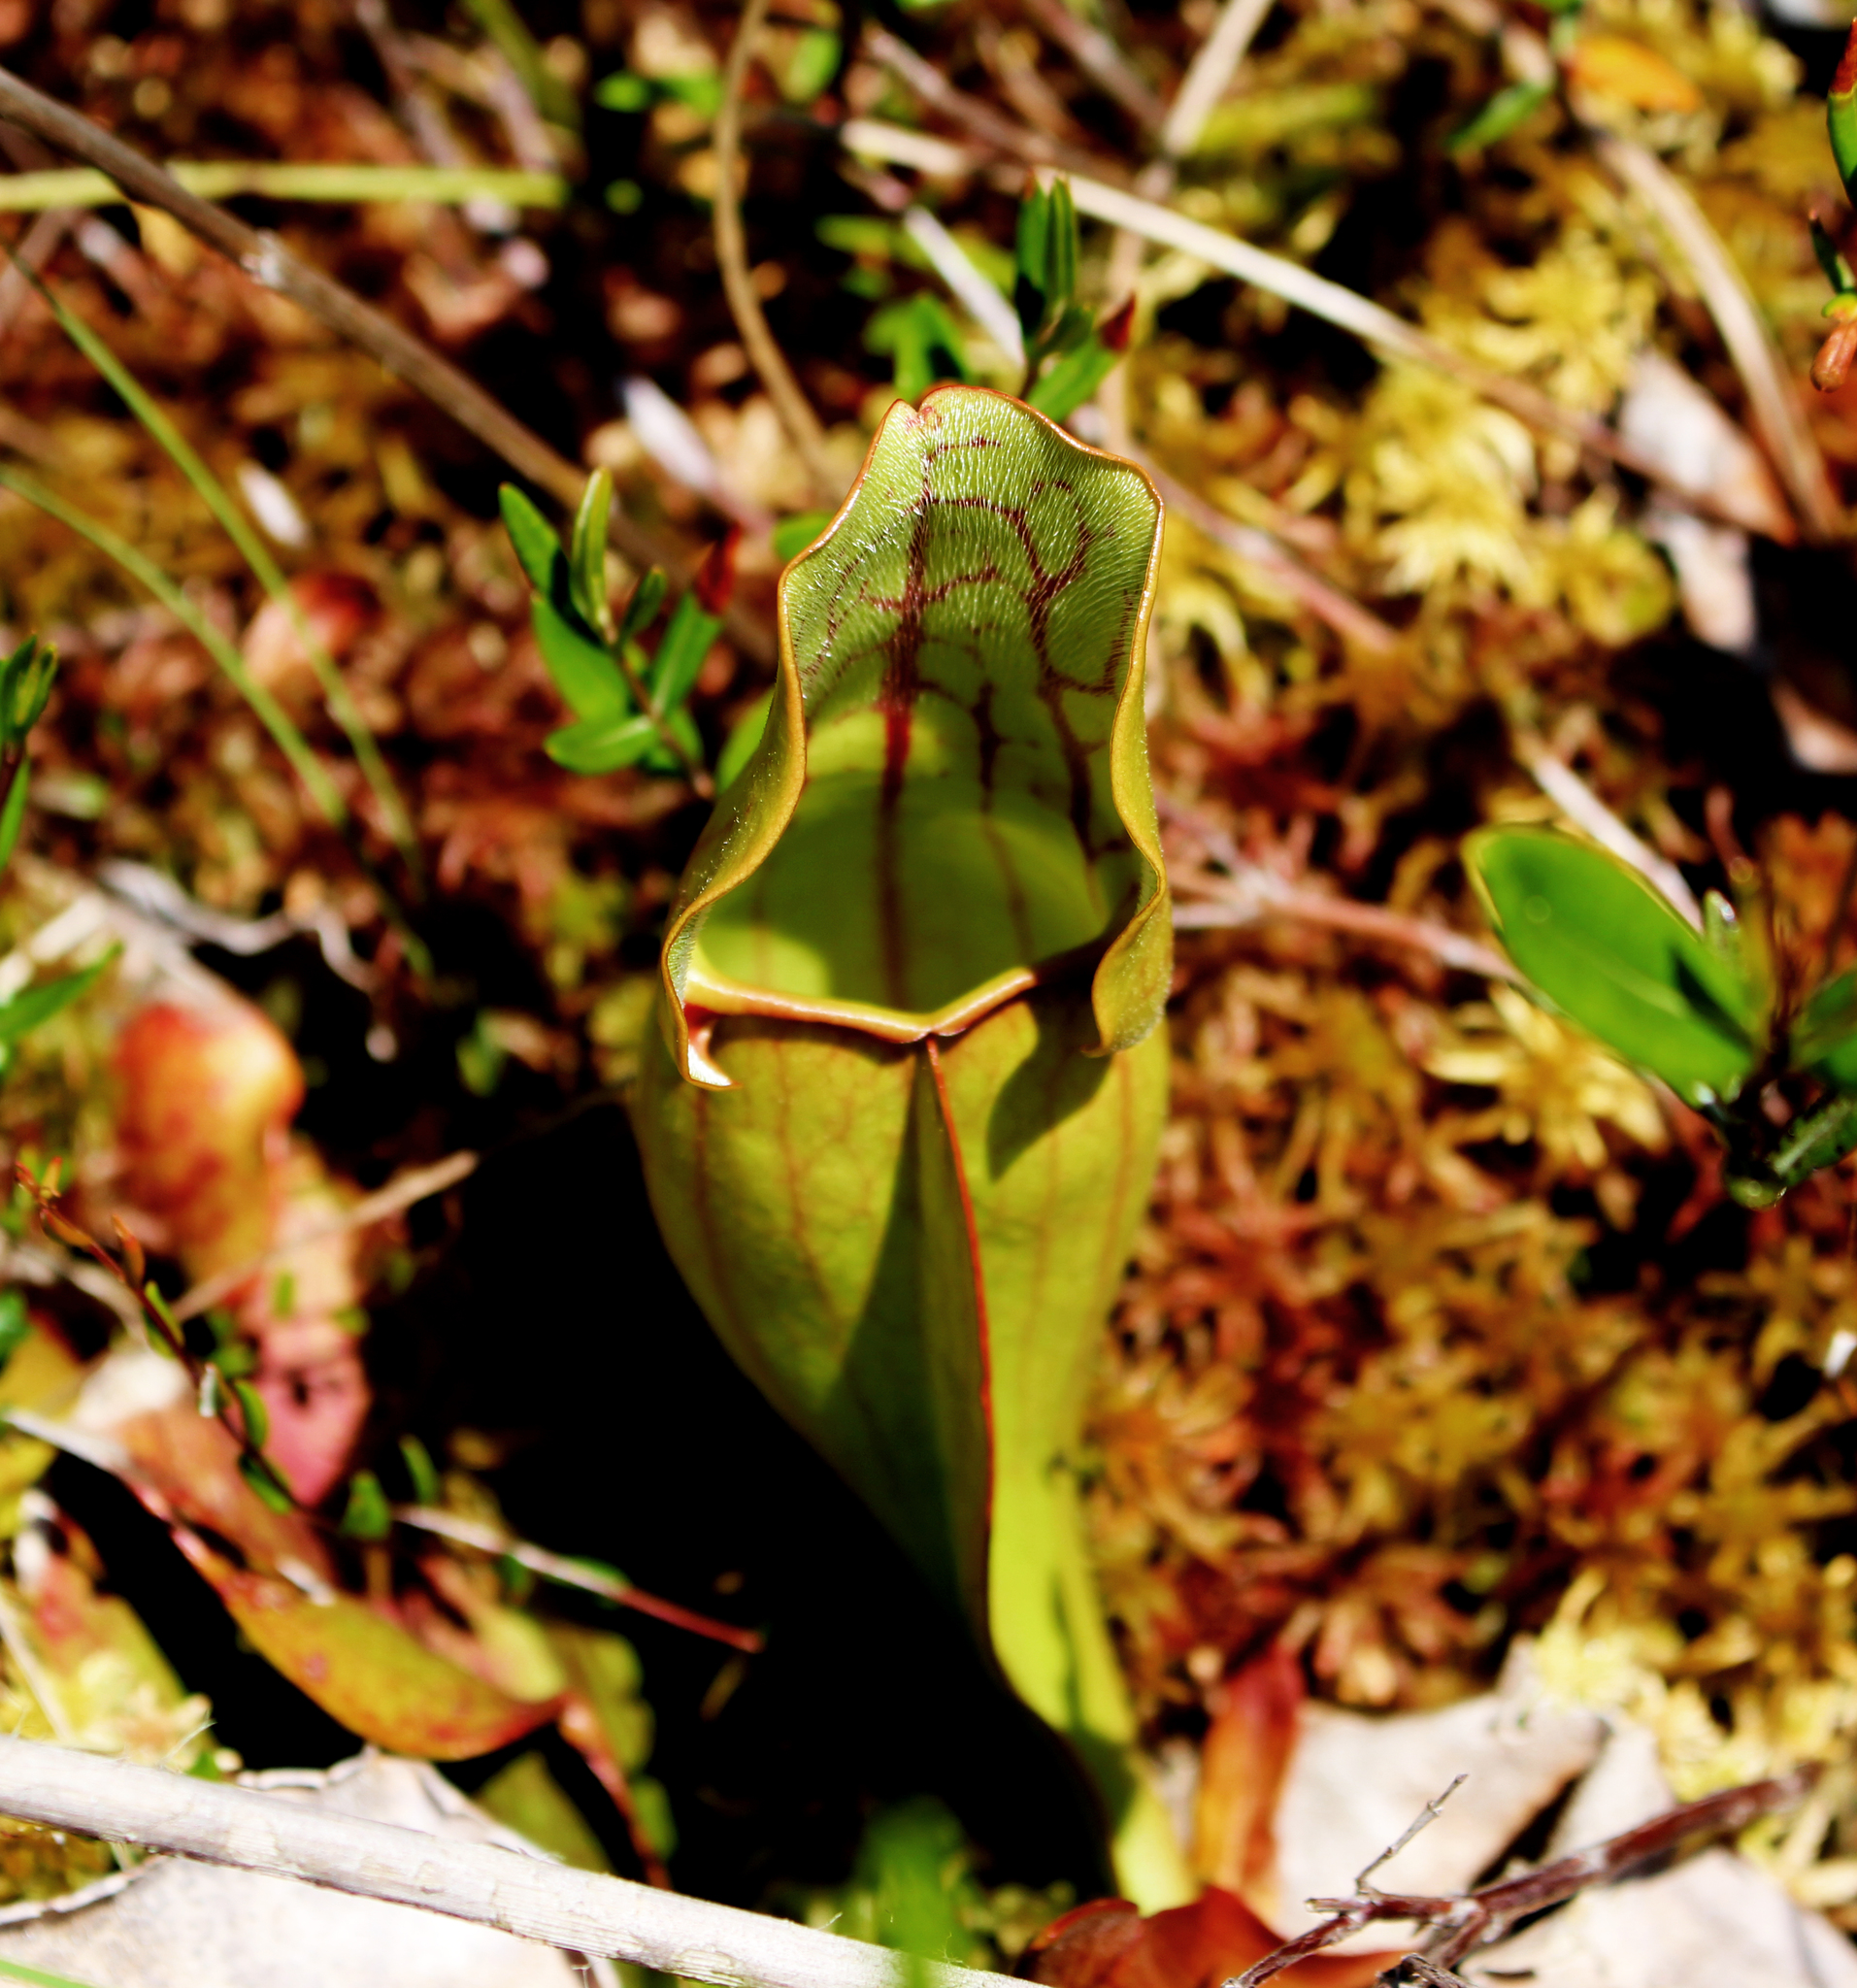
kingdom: Plantae
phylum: Tracheophyta
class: Magnoliopsida
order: Ericales
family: Sarraceniaceae
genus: Sarracenia
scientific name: Sarracenia purpurea
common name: Pitcherplant
